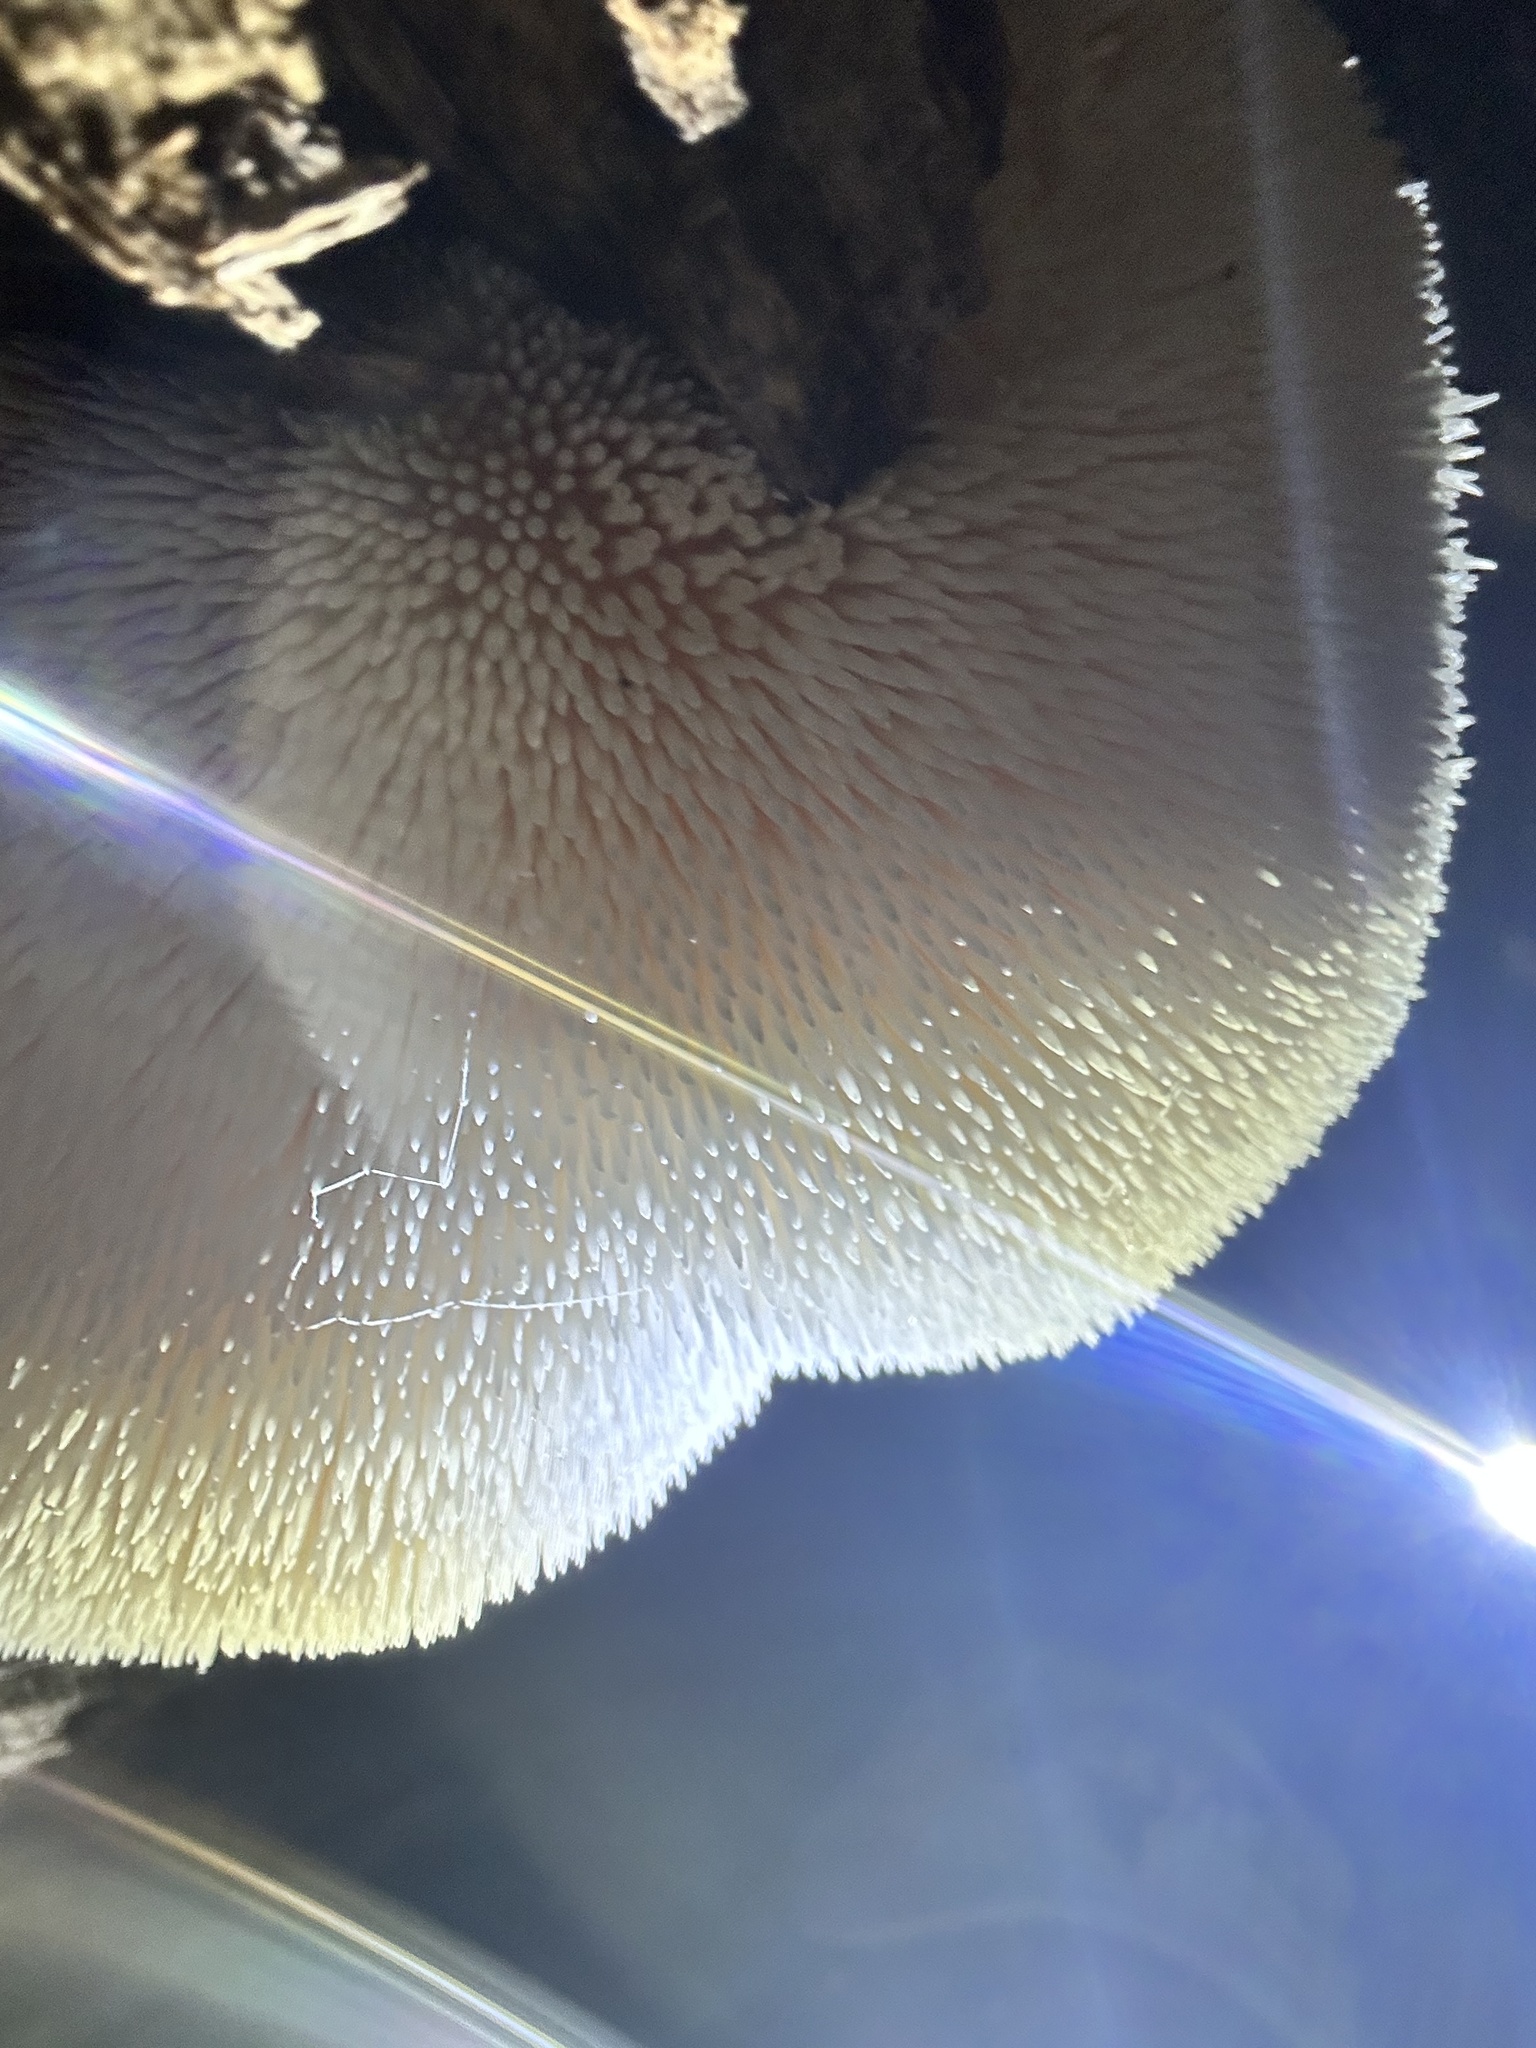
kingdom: Fungi
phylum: Basidiomycota
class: Agaricomycetes
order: Russulales
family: Hericiaceae
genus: Hericium
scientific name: Hericium erinaceus
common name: Bearded tooth
